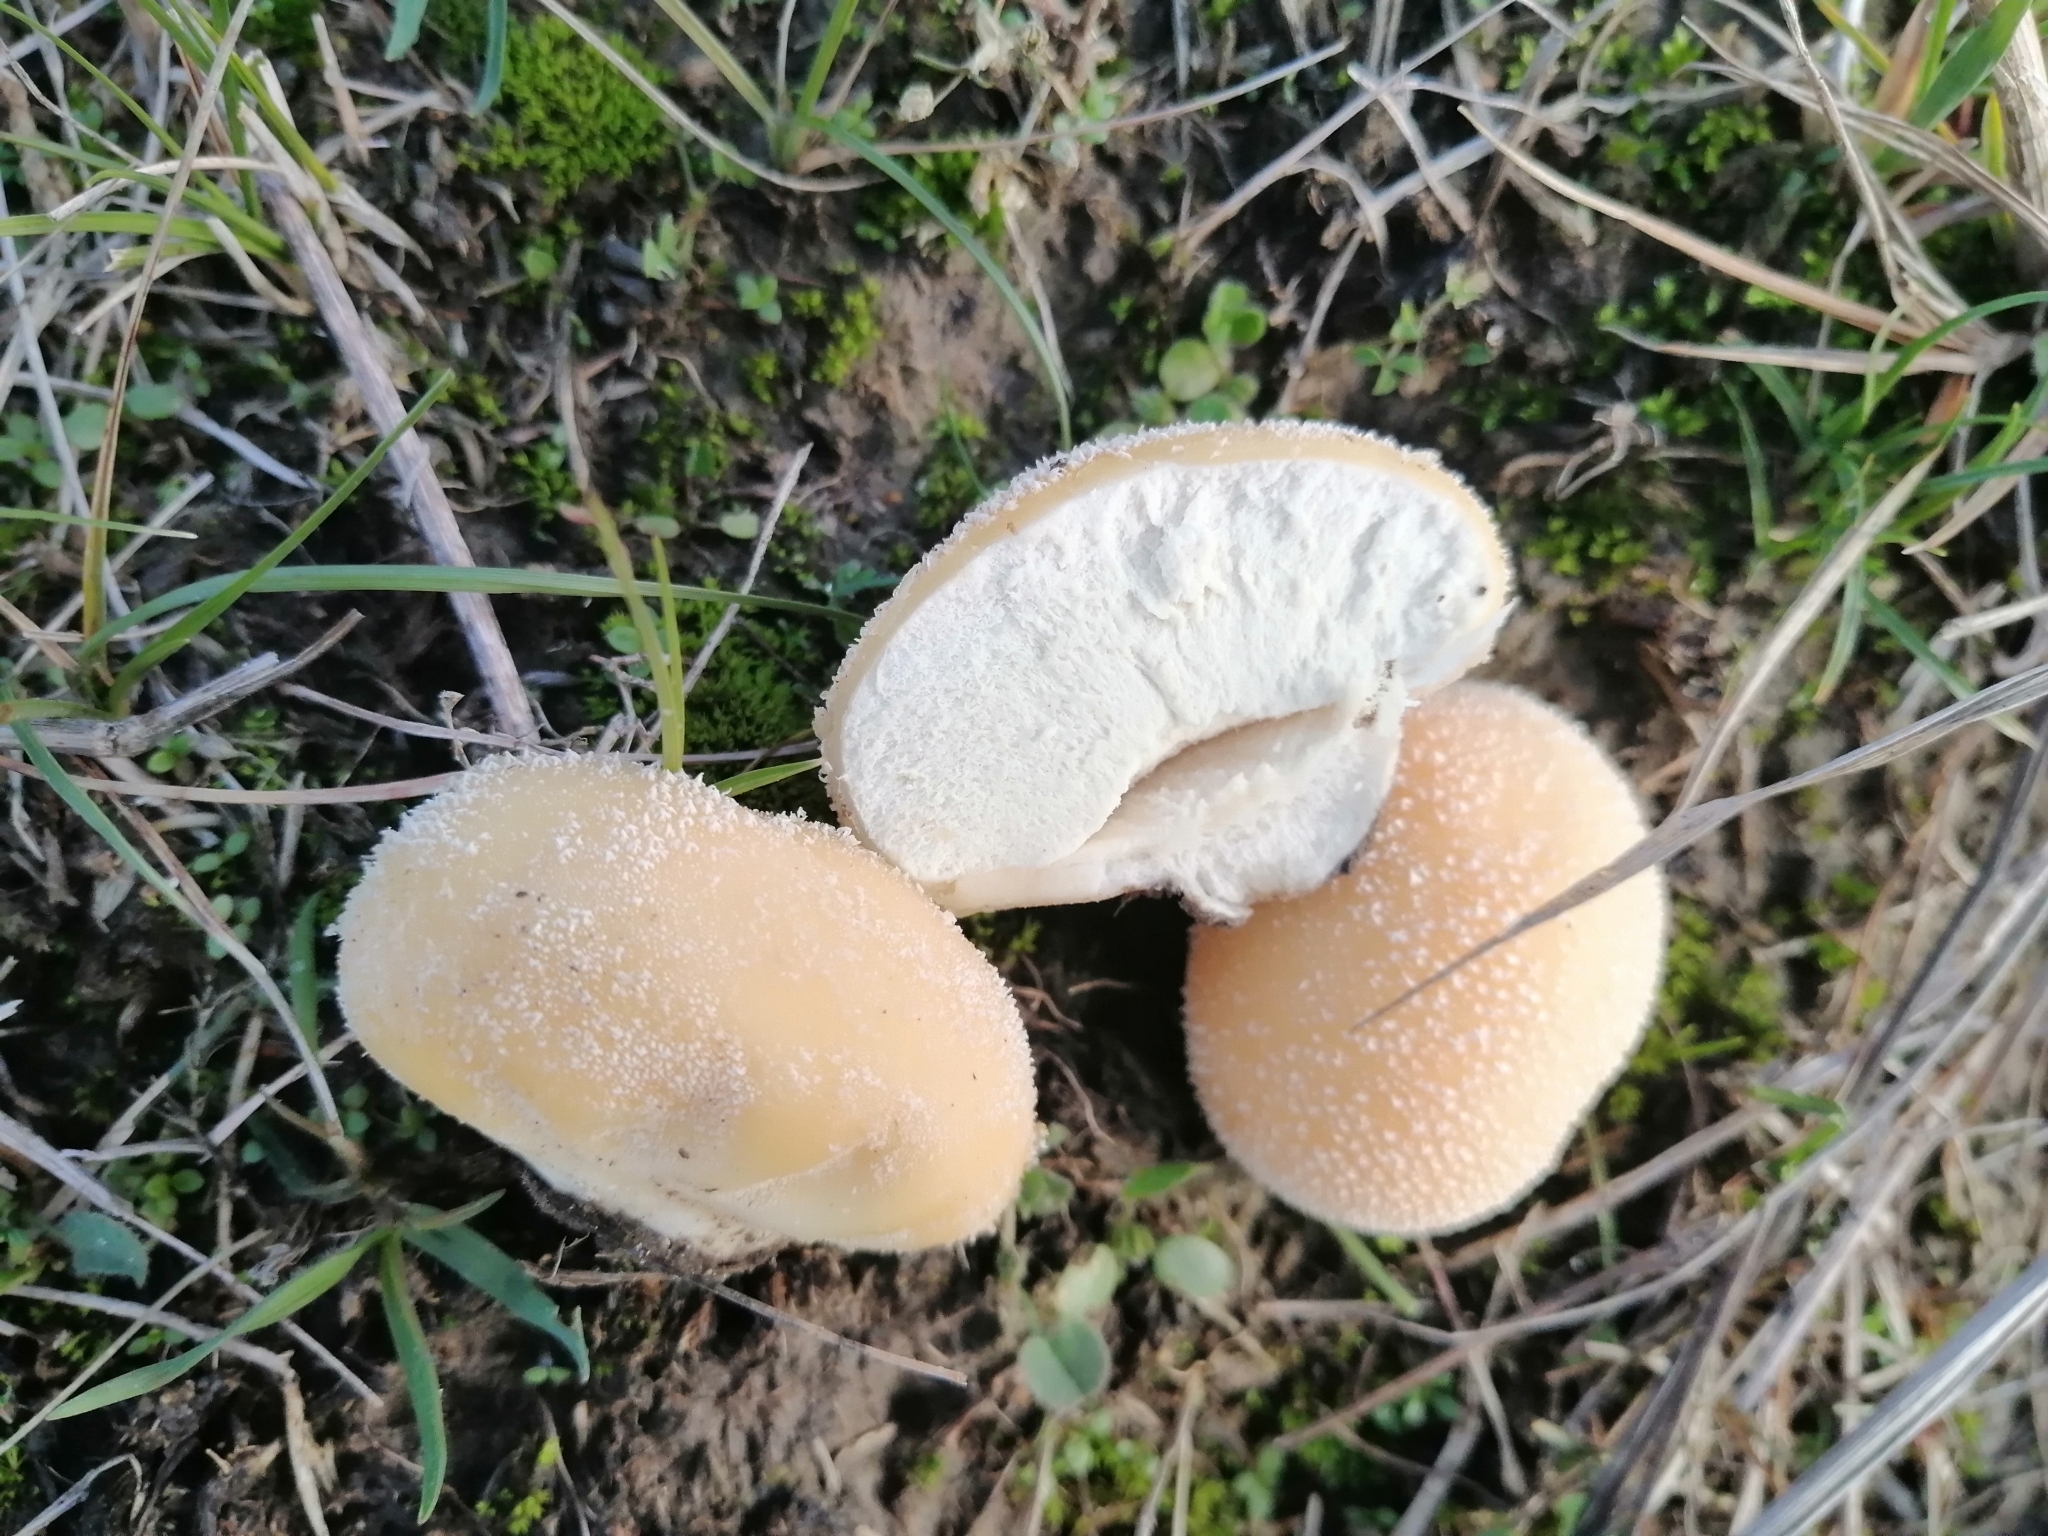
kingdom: Fungi
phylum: Basidiomycota
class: Agaricomycetes
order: Agaricales
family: Lycoperdaceae
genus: Lycoperdon
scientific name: Lycoperdon pratense
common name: Meadow puffball
